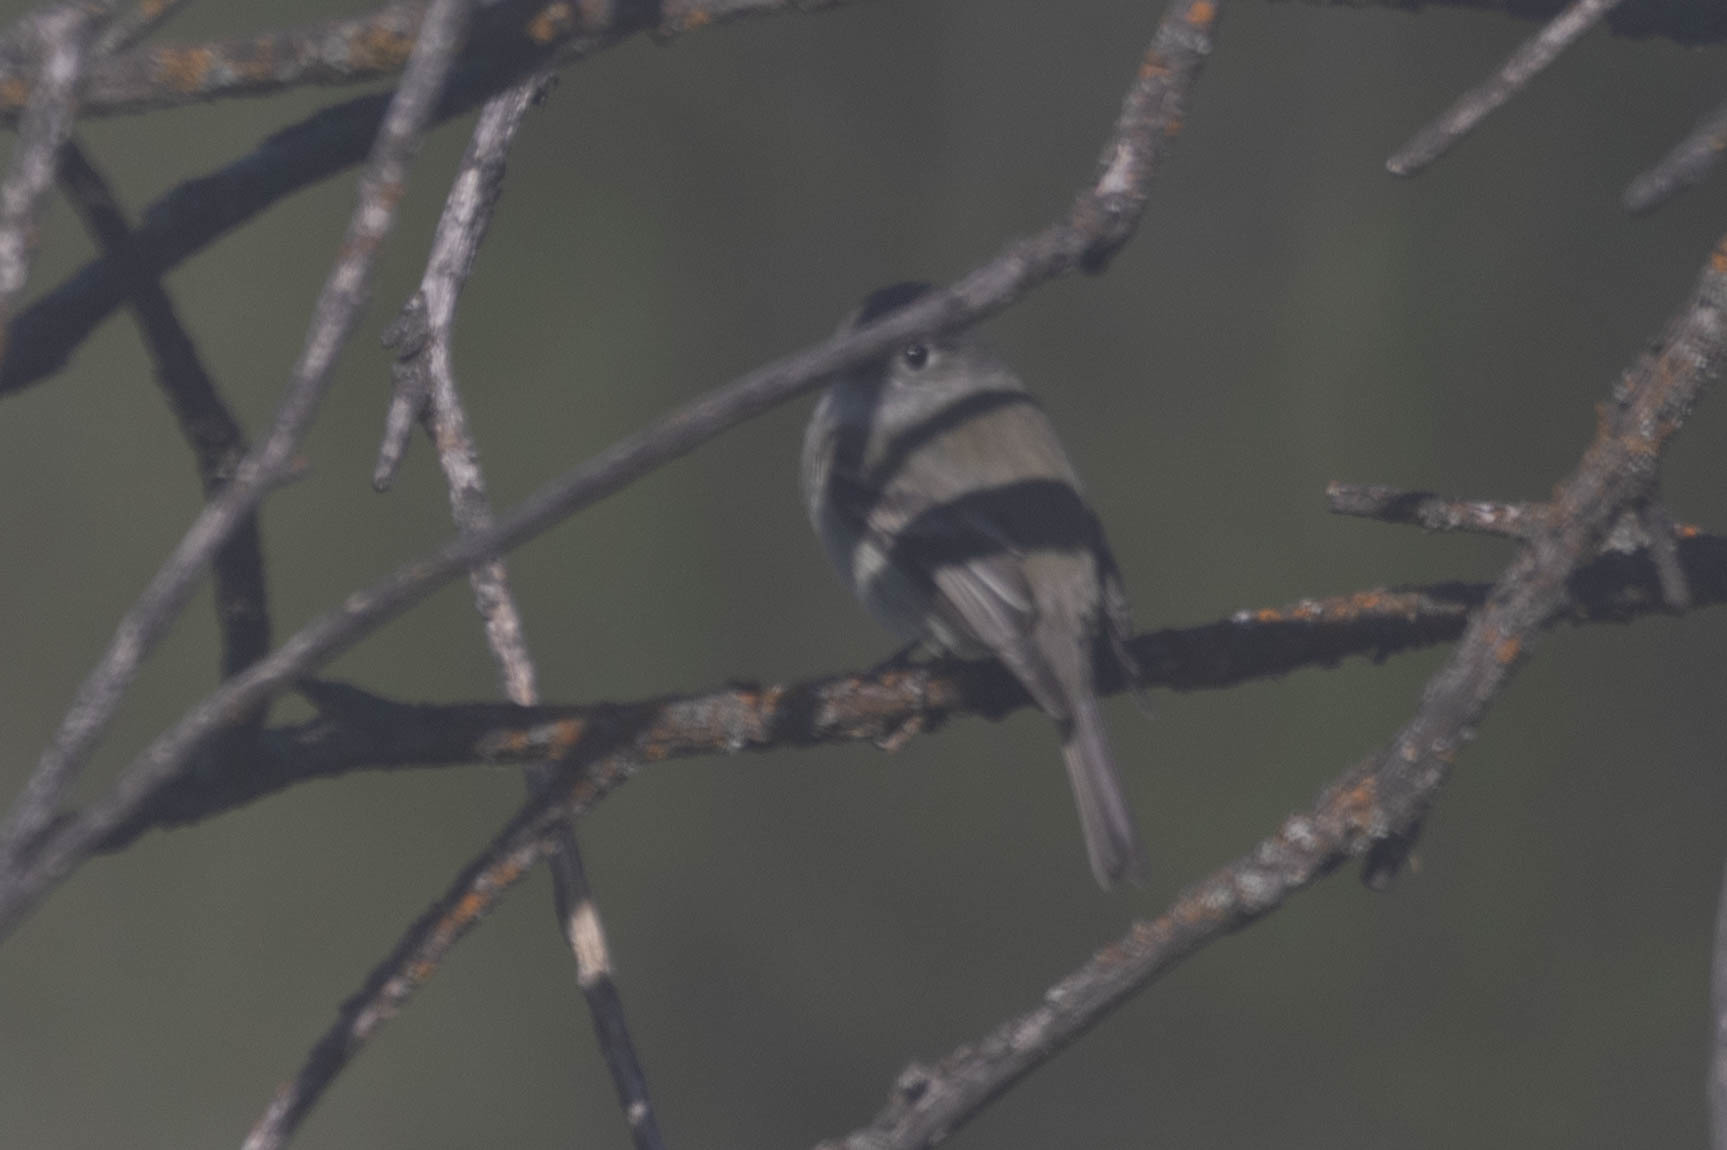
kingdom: Animalia
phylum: Chordata
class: Aves
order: Passeriformes
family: Tyrannidae
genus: Empidonax
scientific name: Empidonax hammondii
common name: Hammond's flycatcher
